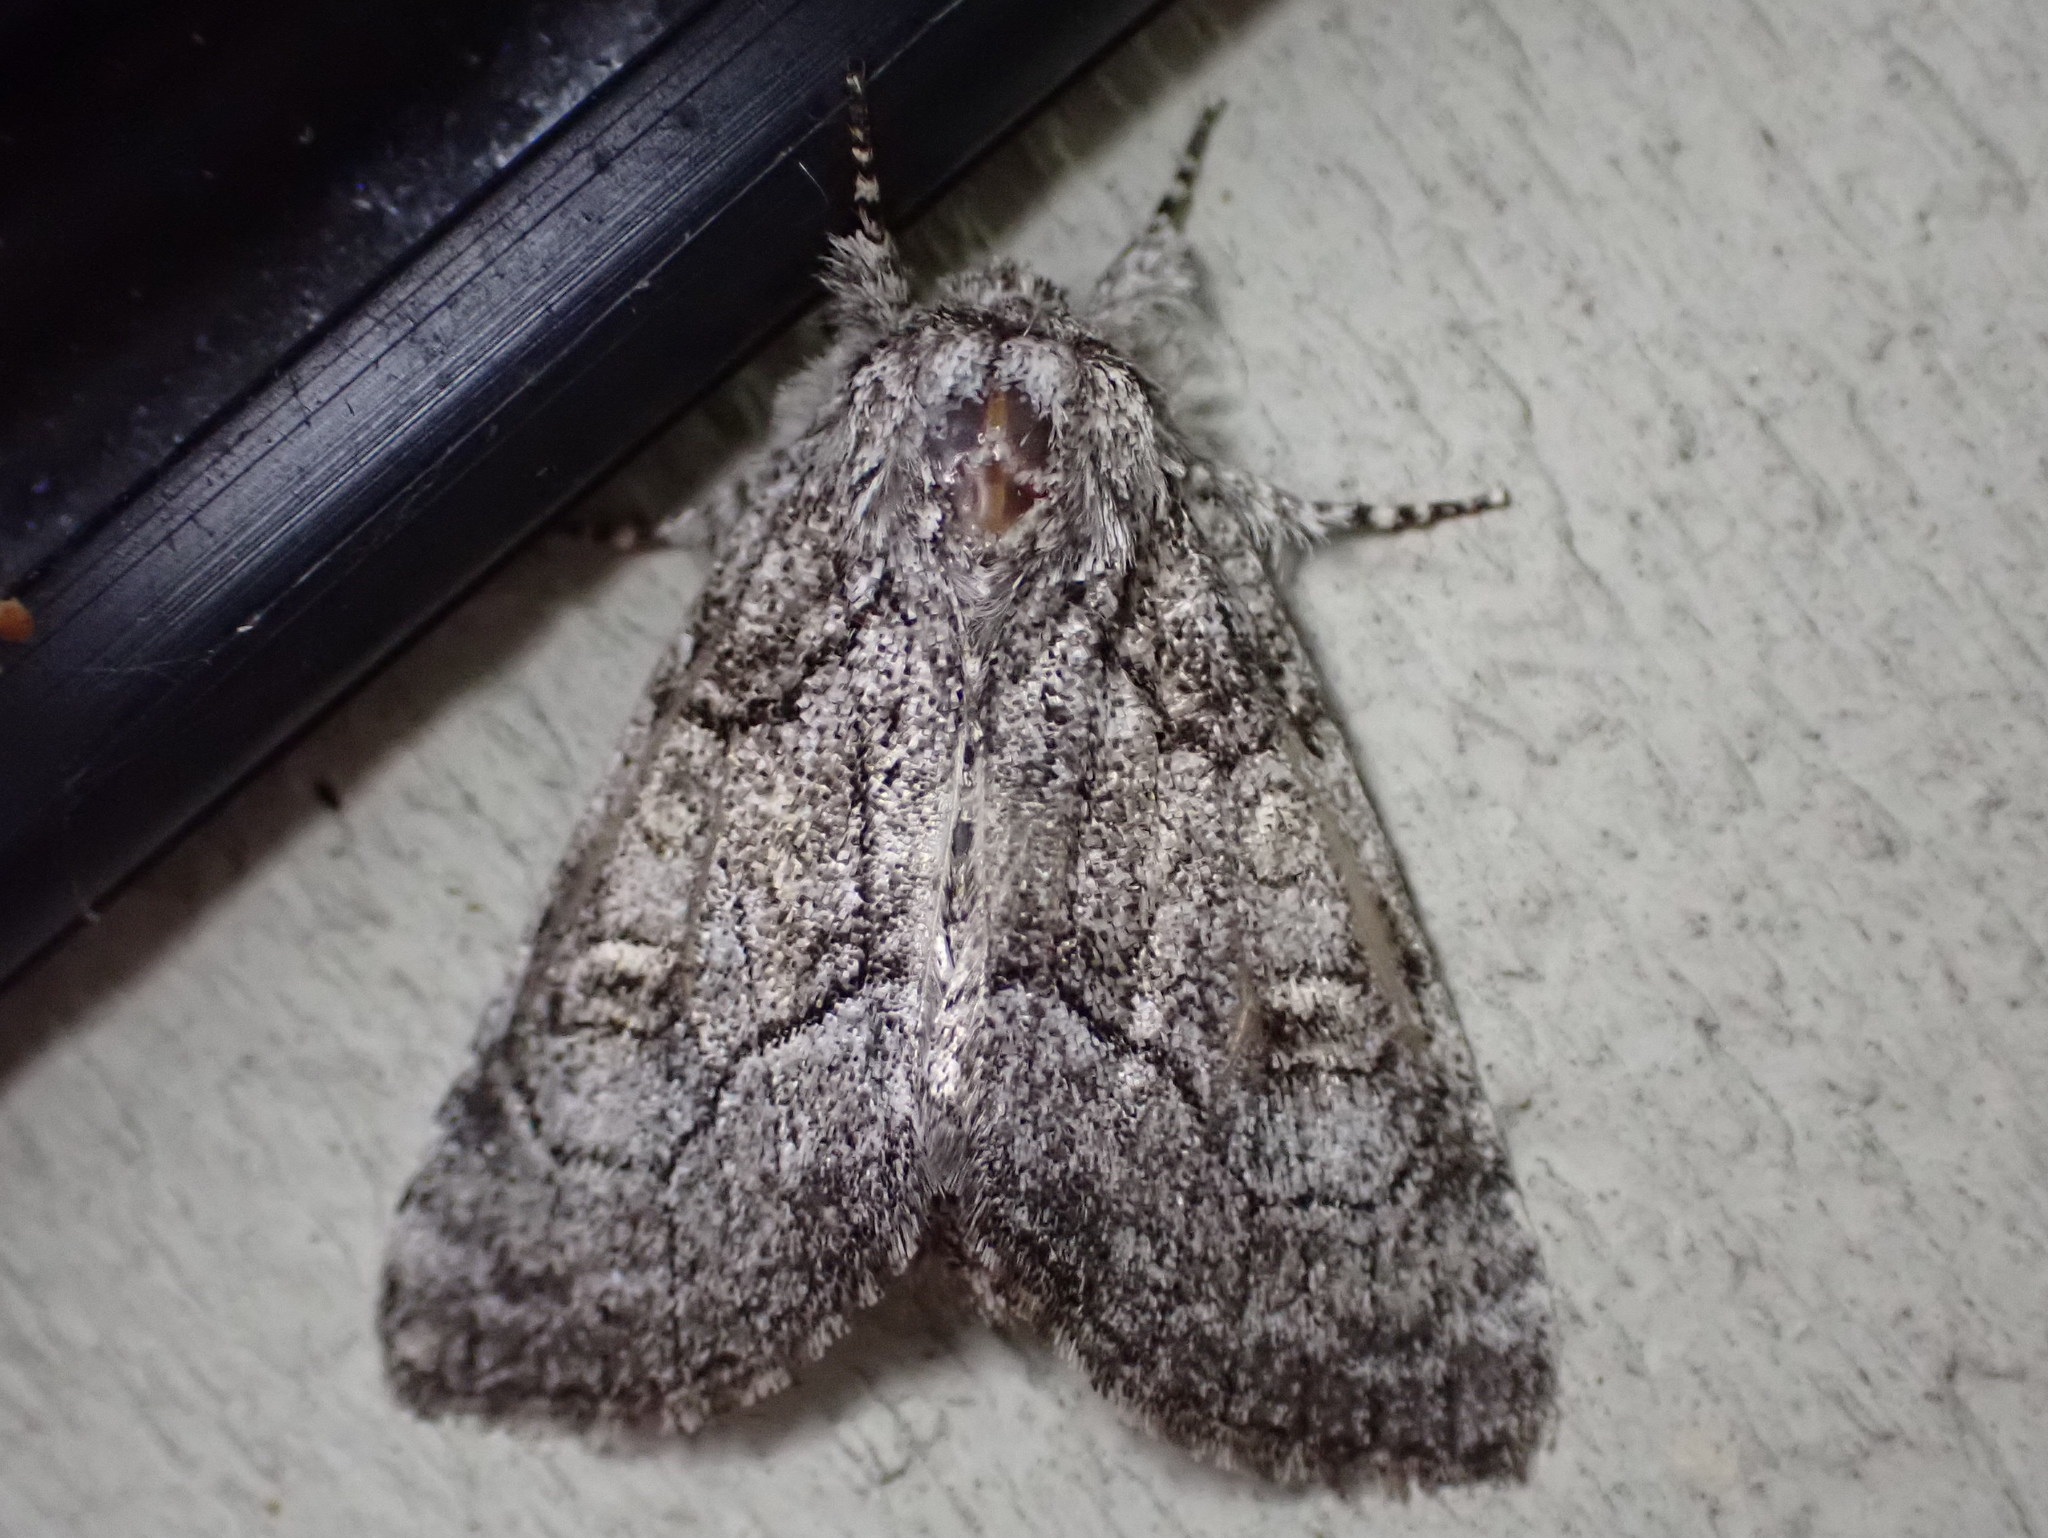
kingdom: Animalia
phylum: Arthropoda
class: Insecta
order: Lepidoptera
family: Noctuidae
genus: Raphia
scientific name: Raphia frater
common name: Brother
